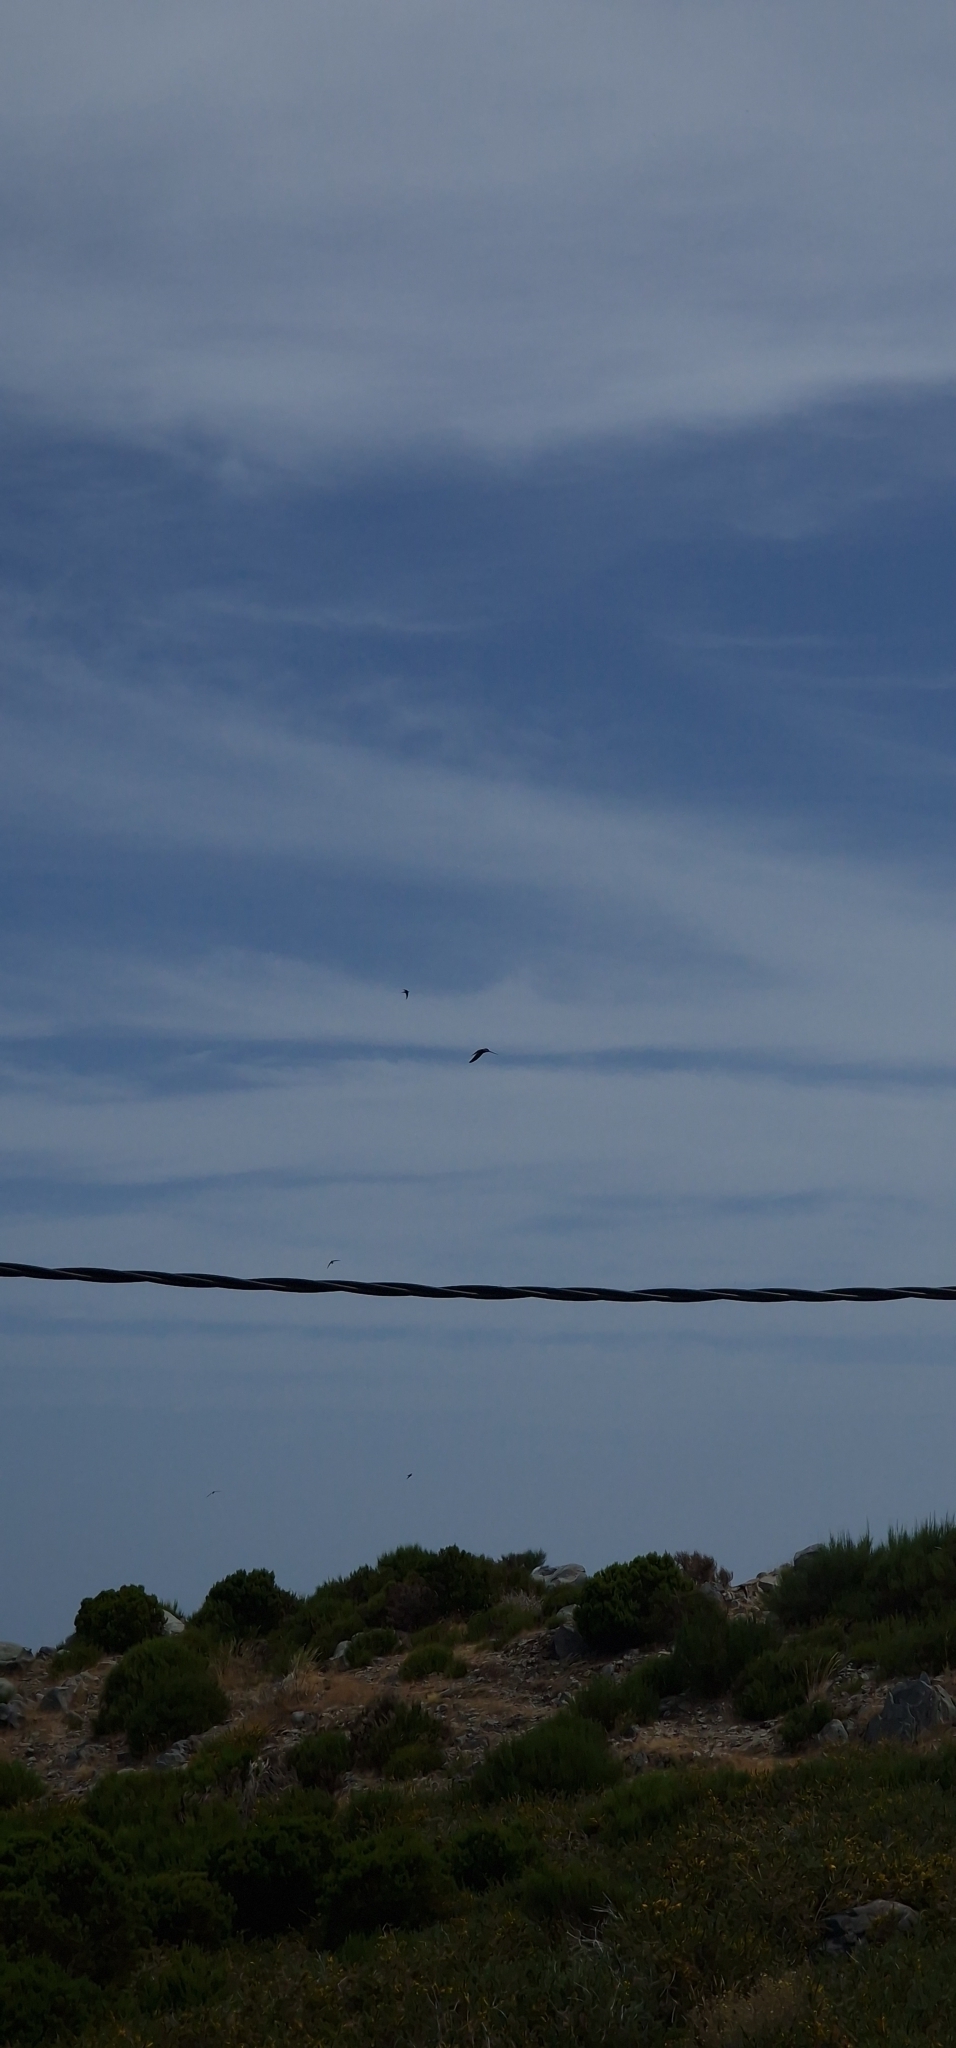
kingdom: Animalia
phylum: Chordata
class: Aves
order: Apodiformes
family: Apodidae
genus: Apus
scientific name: Apus unicolor
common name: Plain swift
